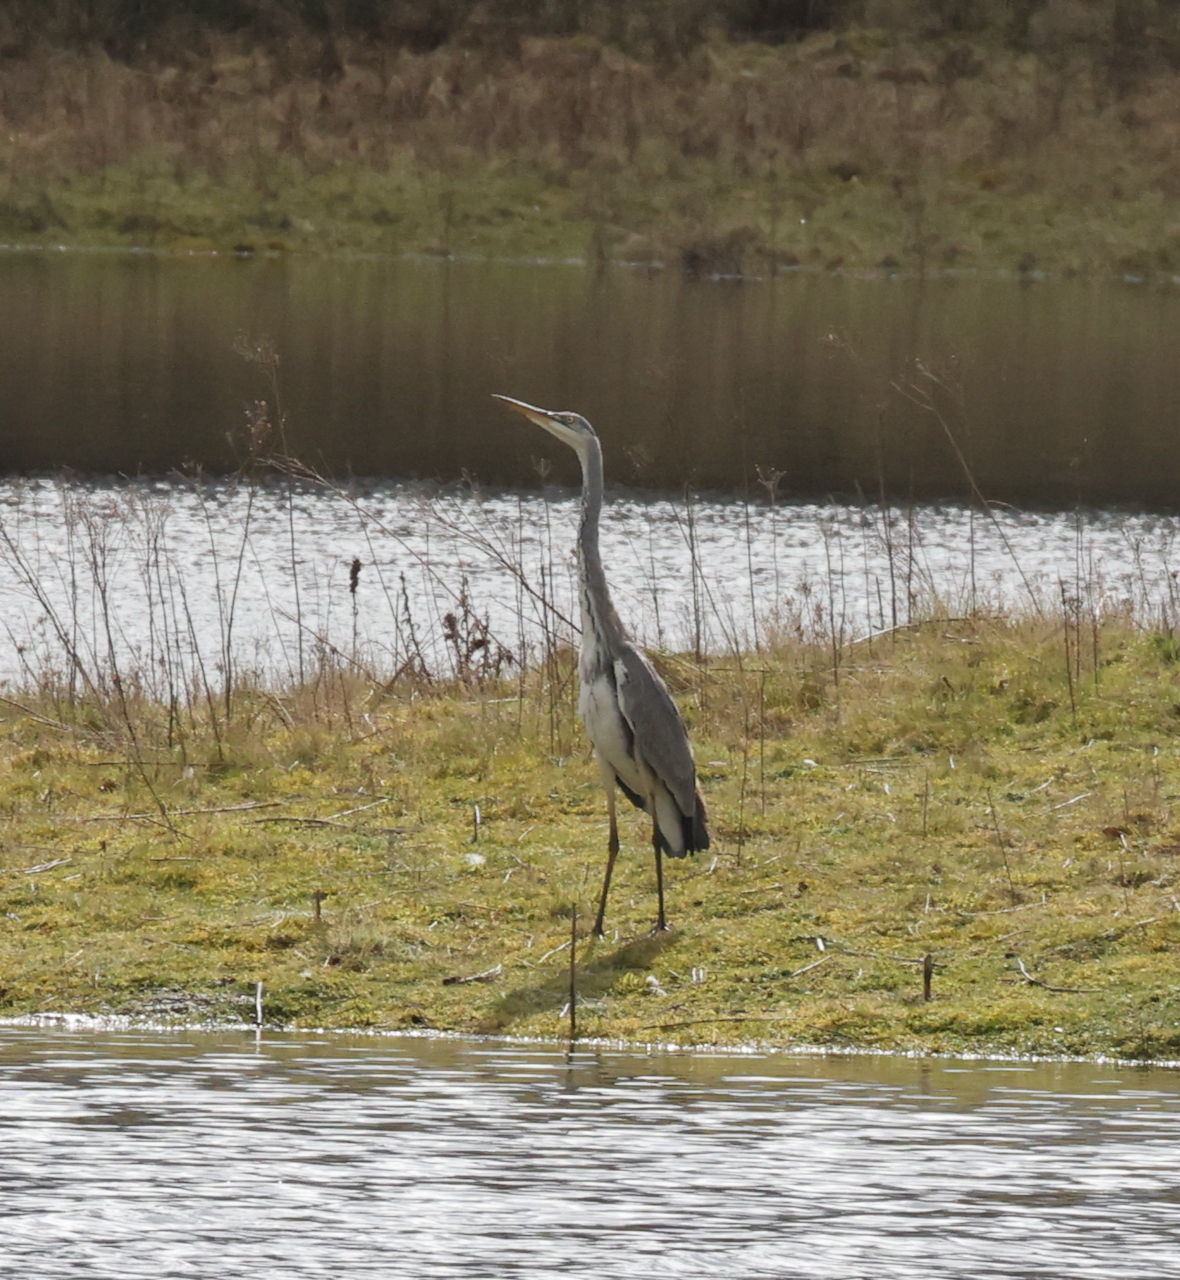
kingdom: Animalia
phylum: Chordata
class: Aves
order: Pelecaniformes
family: Ardeidae
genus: Ardea
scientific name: Ardea cinerea
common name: Grey heron
